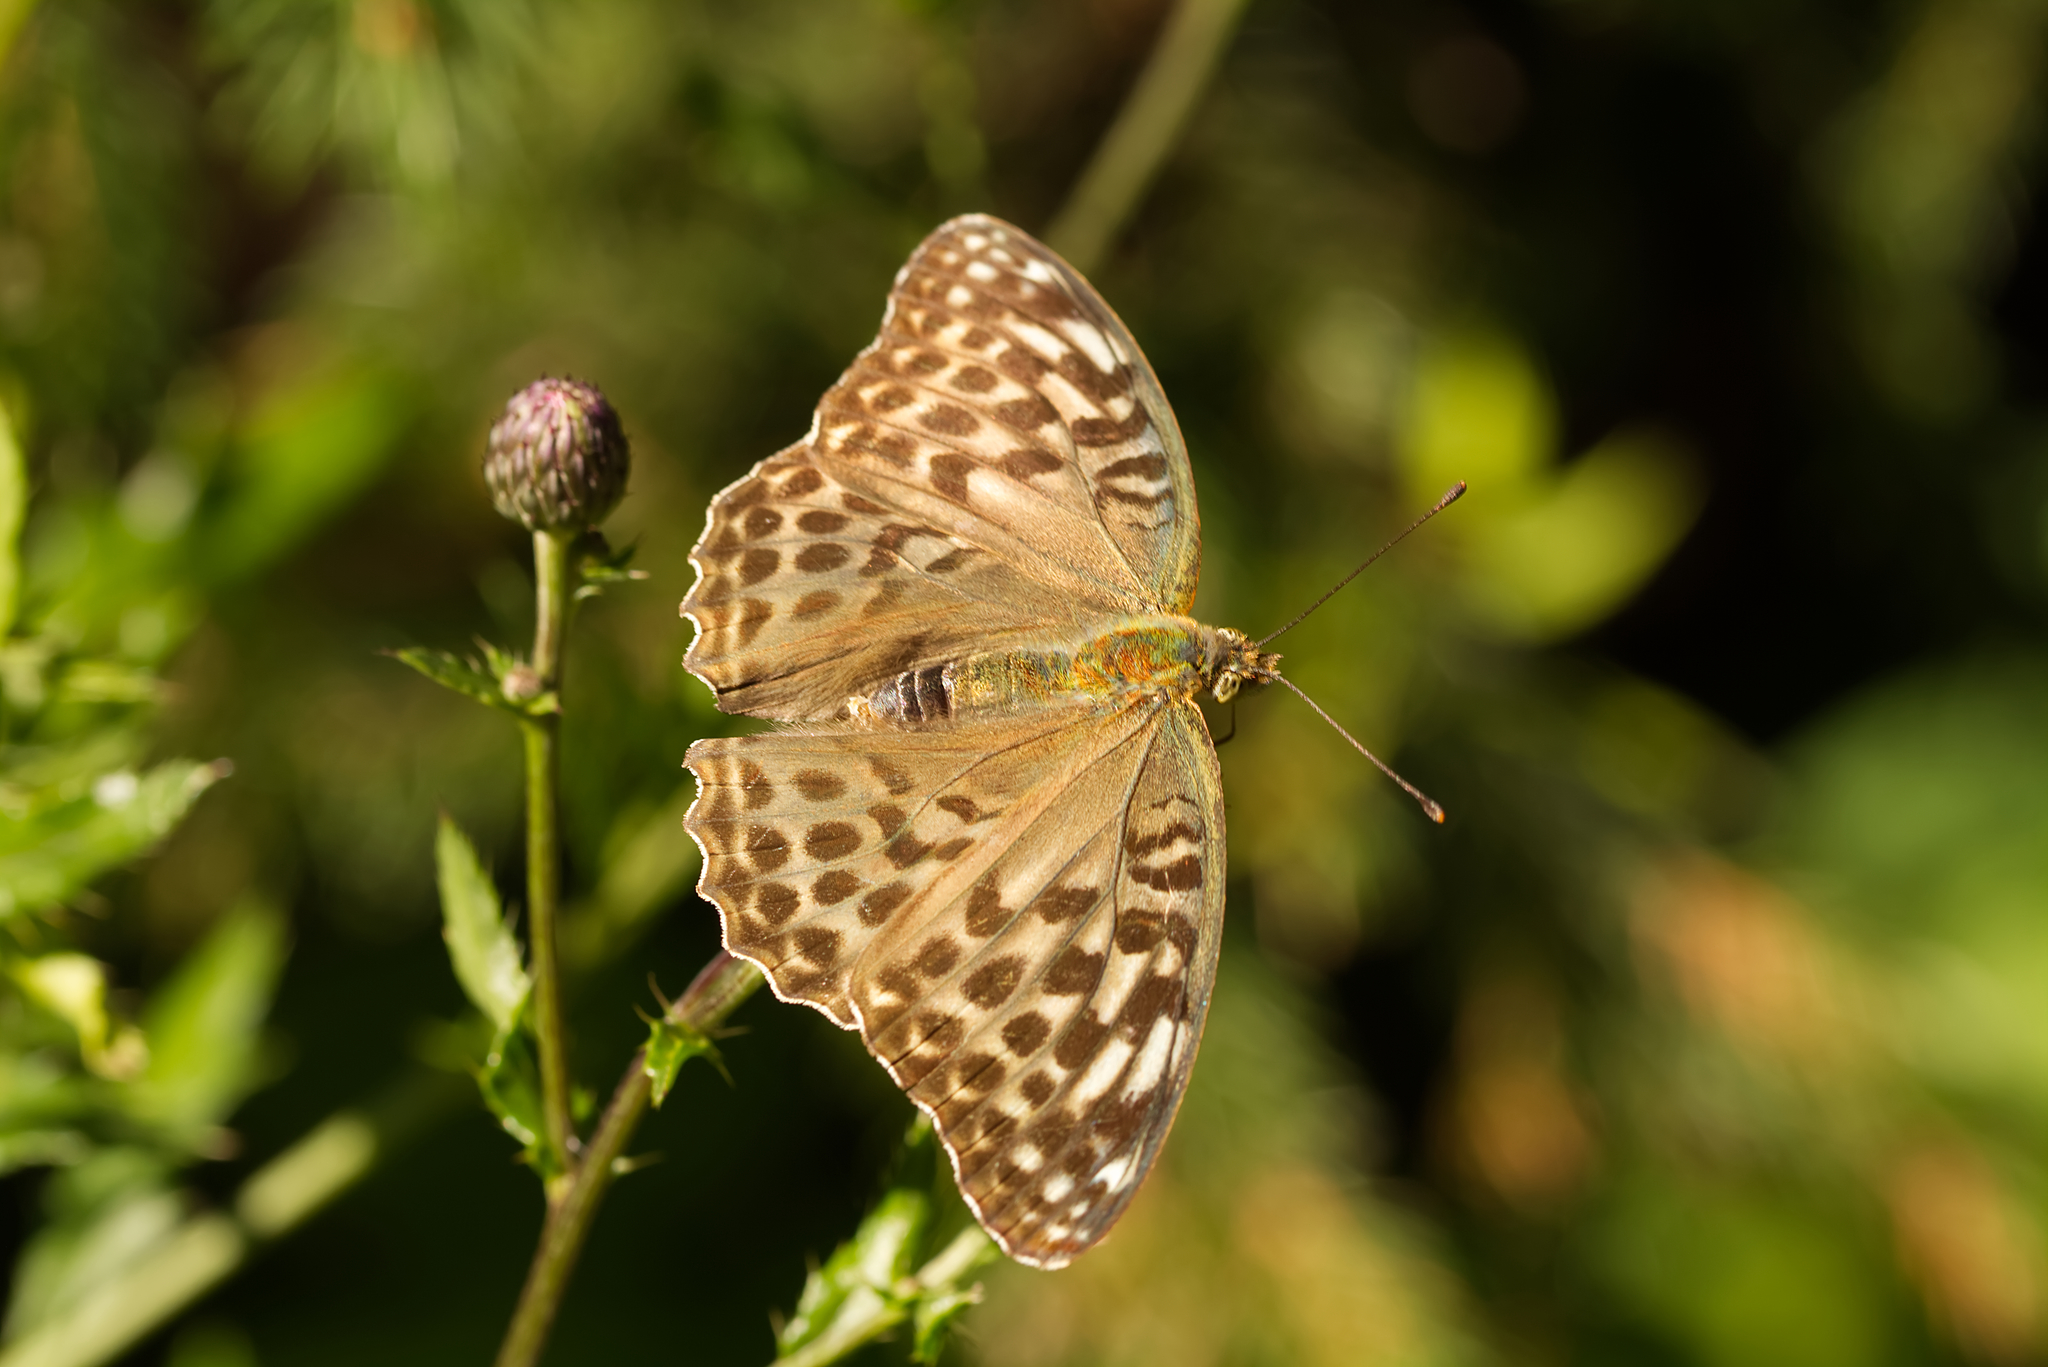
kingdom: Animalia
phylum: Arthropoda
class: Insecta
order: Lepidoptera
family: Nymphalidae
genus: Argynnis
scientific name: Argynnis paphia
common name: Silver-washed fritillary
